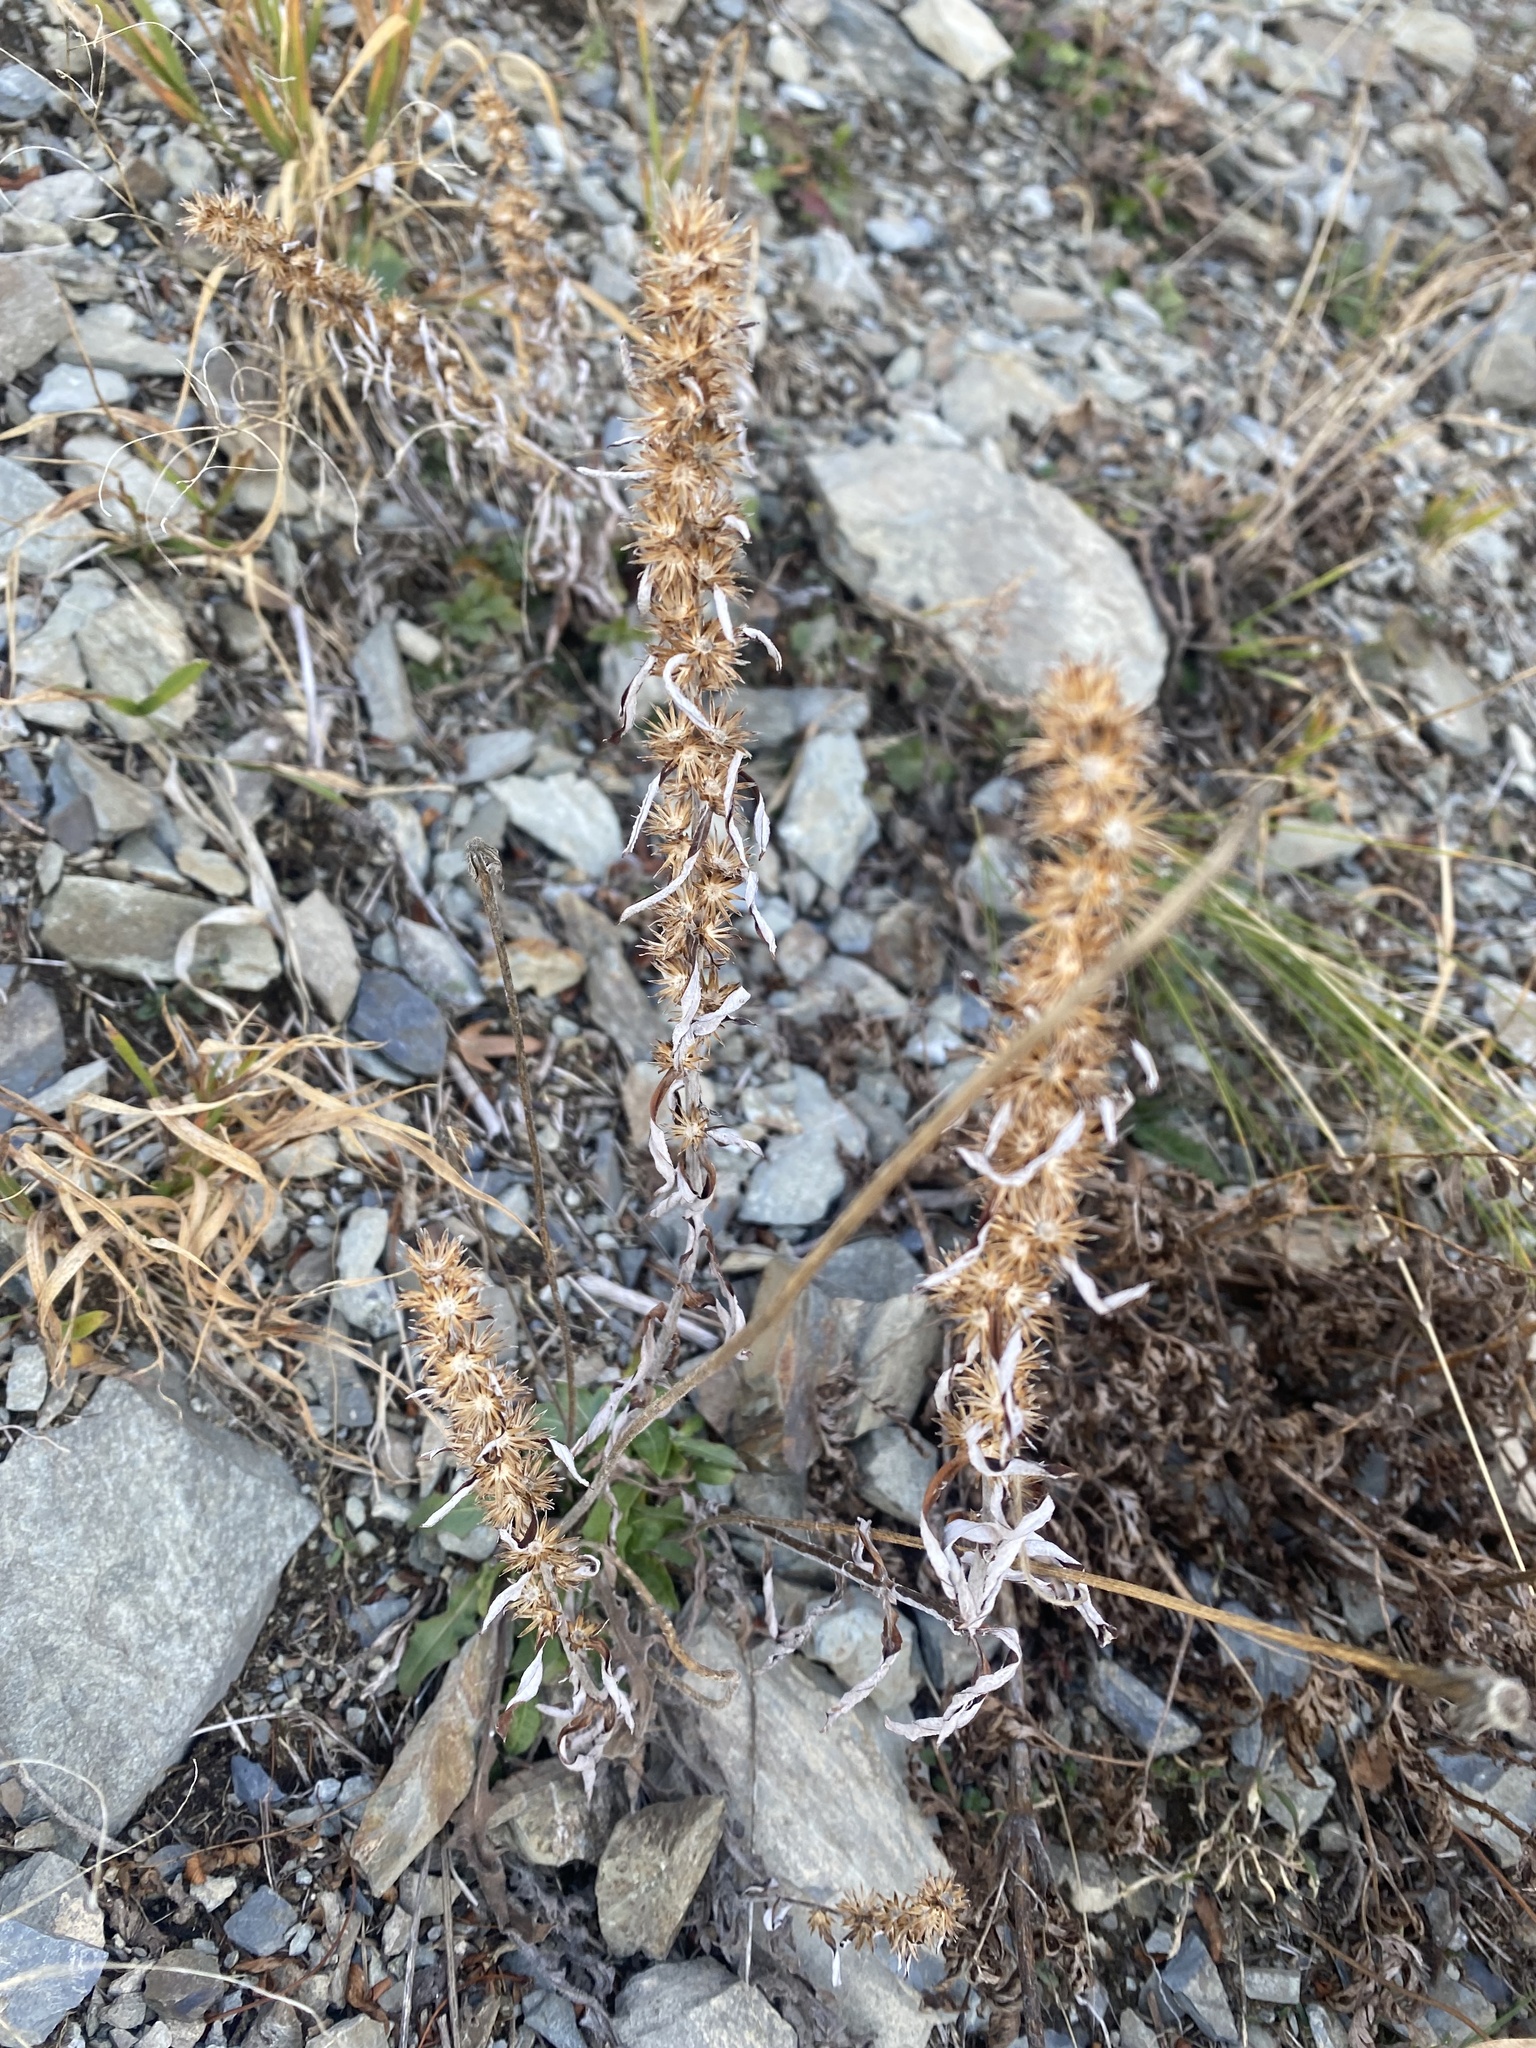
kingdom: Plantae
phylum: Tracheophyta
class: Magnoliopsida
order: Asterales
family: Asteraceae
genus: Omalotheca
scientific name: Omalotheca sylvatica
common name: Heath cudweed
